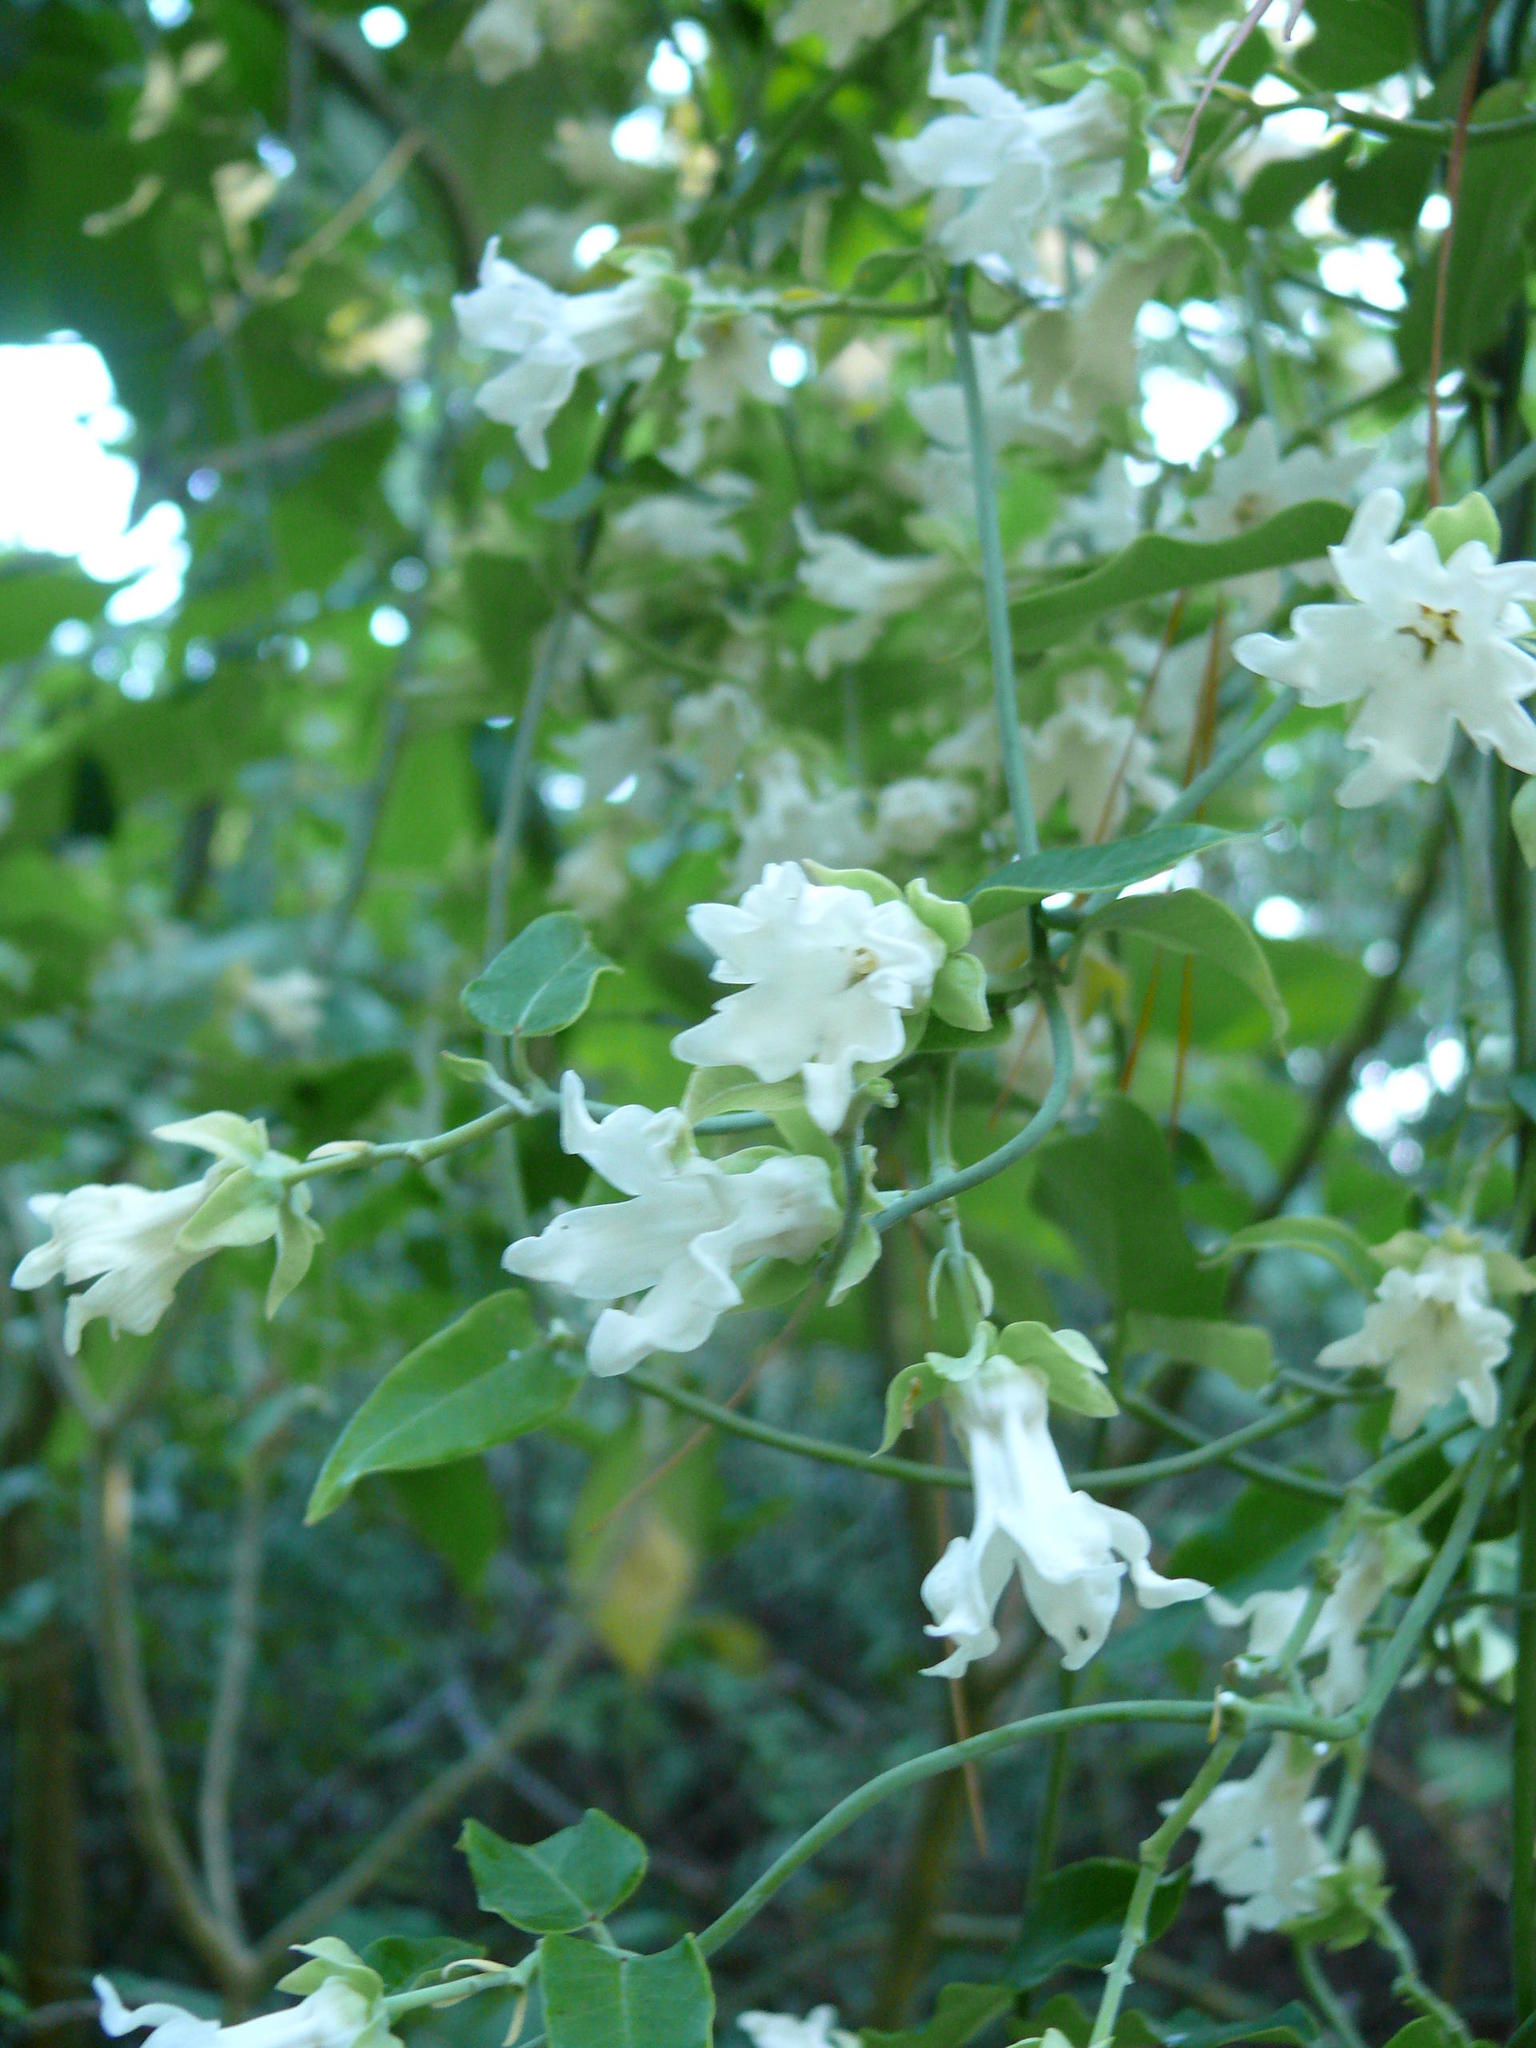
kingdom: Plantae
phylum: Tracheophyta
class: Magnoliopsida
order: Gentianales
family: Apocynaceae
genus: Araujia
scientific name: Araujia sericifera
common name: White bladderflower
